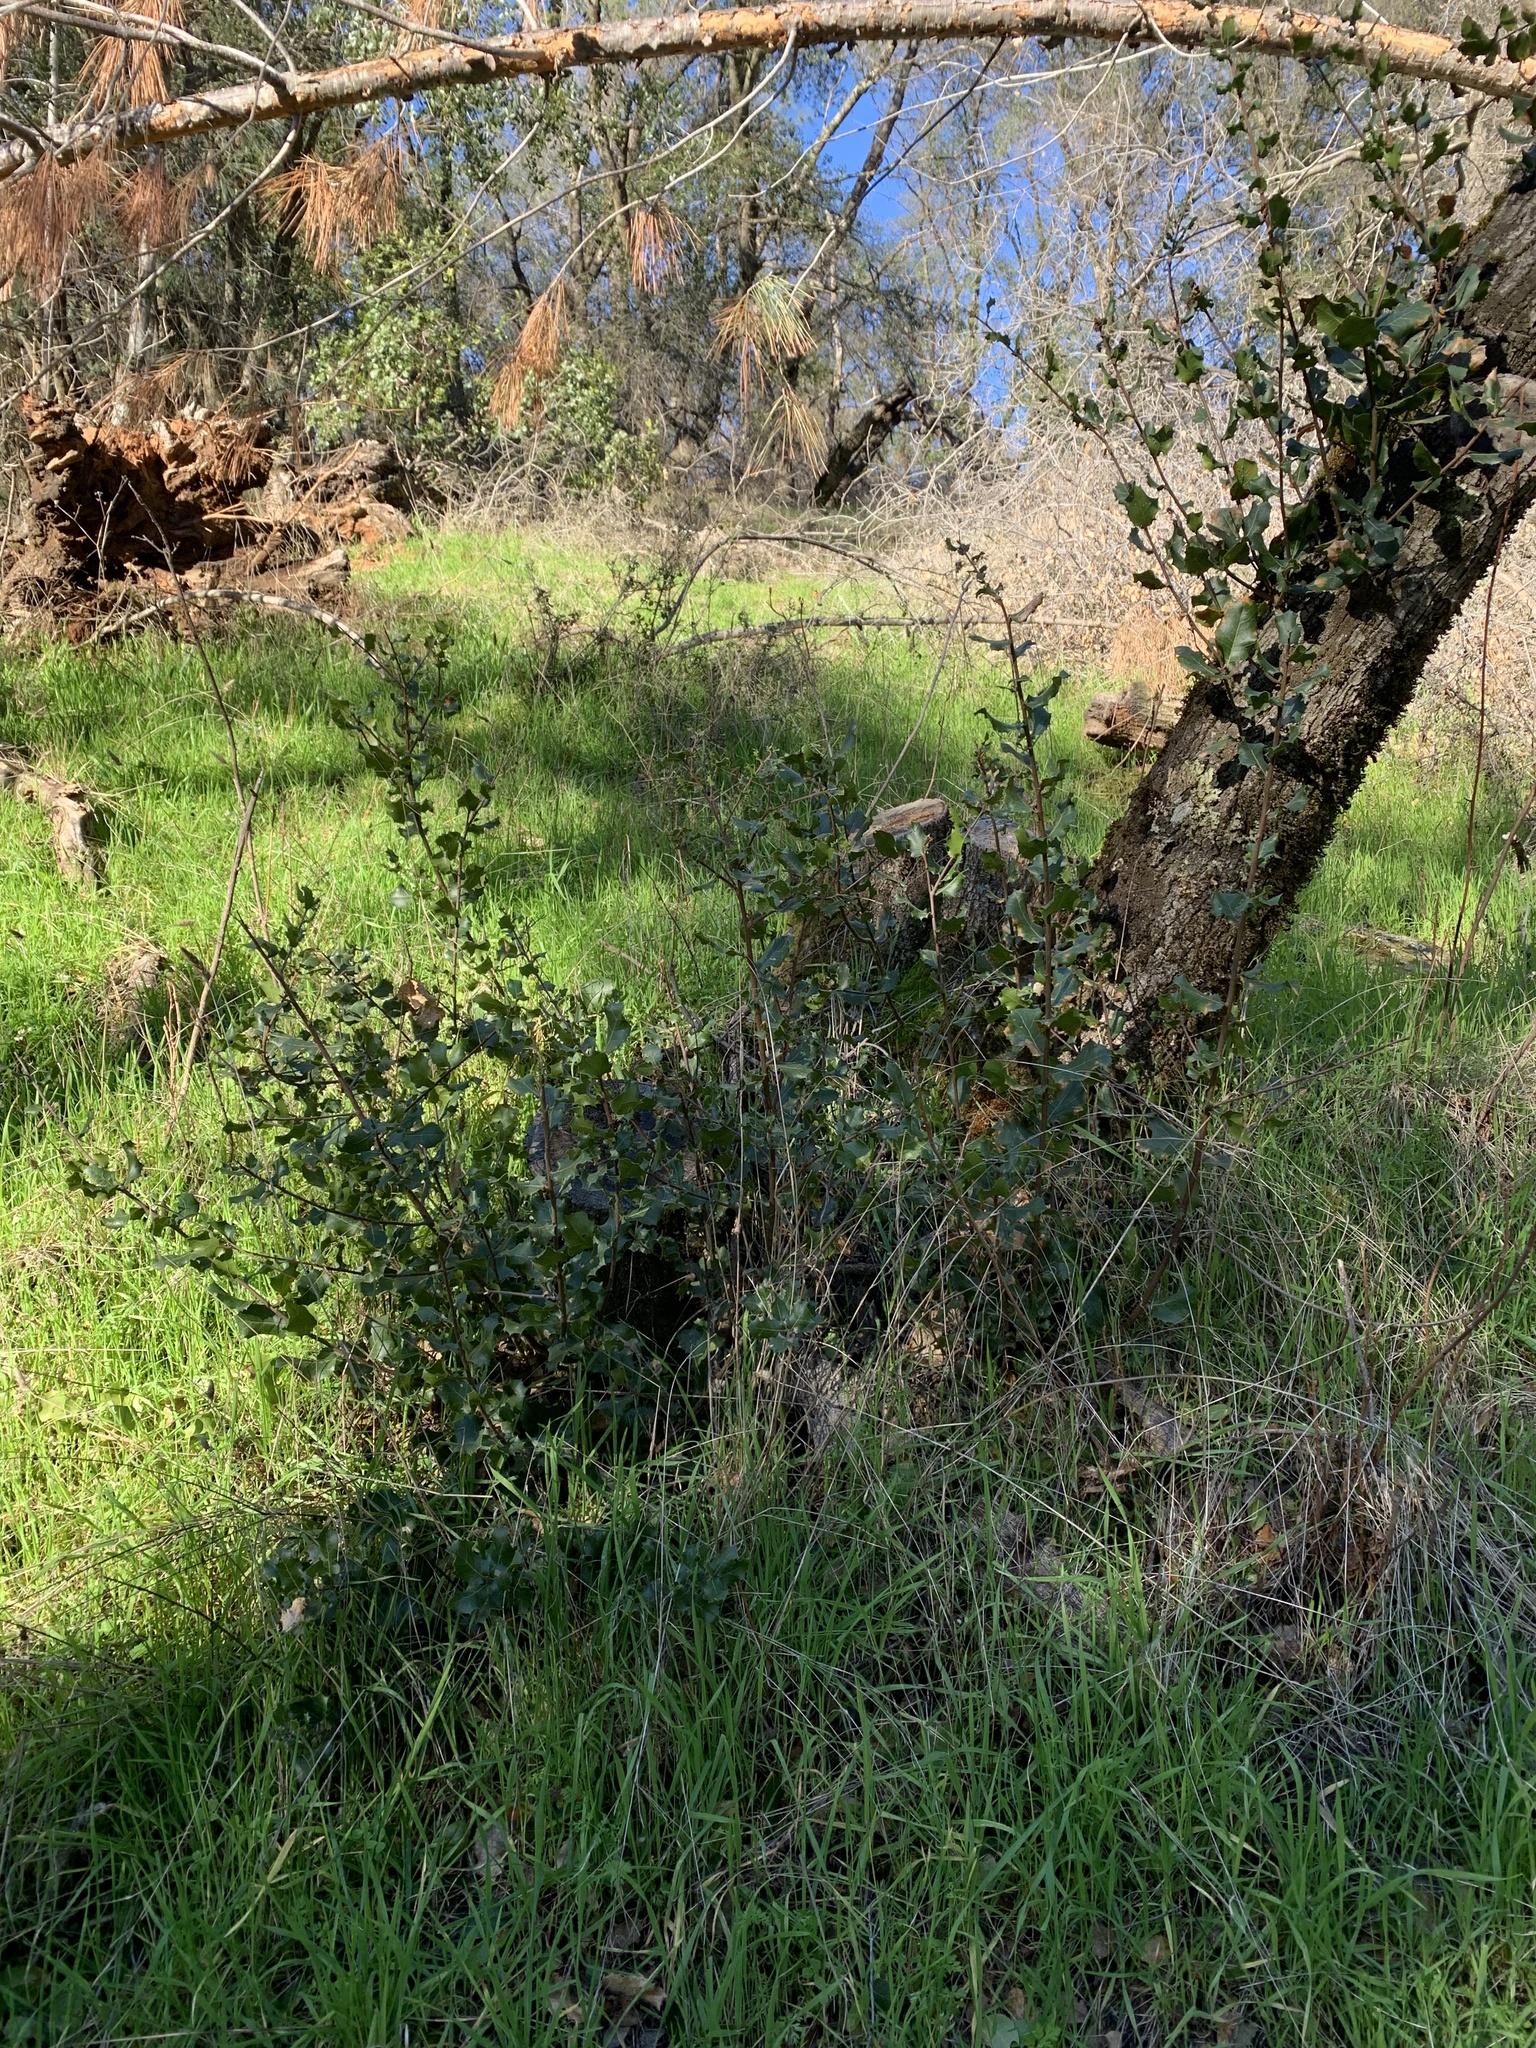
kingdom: Plantae
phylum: Tracheophyta
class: Magnoliopsida
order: Fagales
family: Fagaceae
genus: Quercus
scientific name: Quercus wislizeni
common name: Interior live oak
